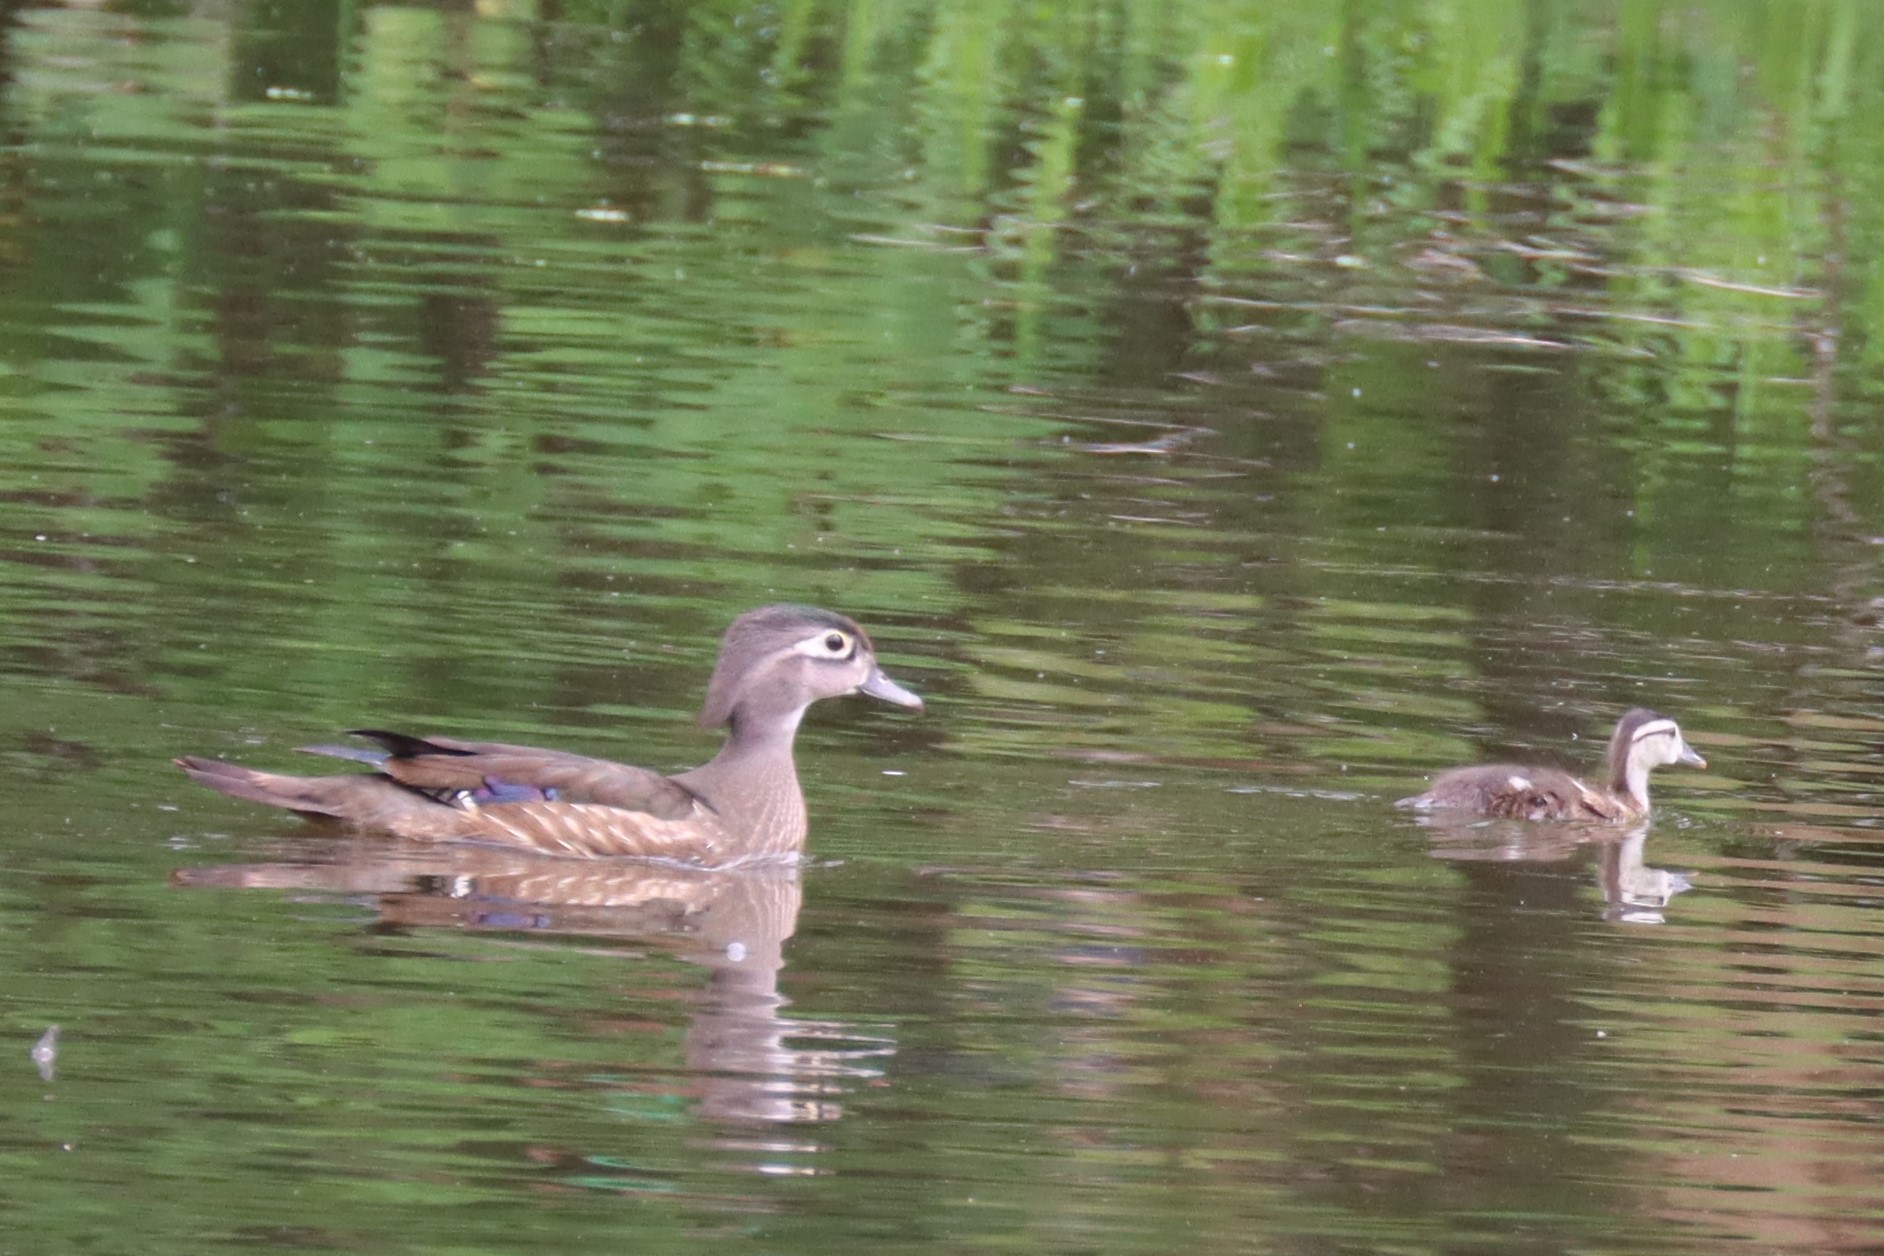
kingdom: Animalia
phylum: Chordata
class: Aves
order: Anseriformes
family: Anatidae
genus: Aix
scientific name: Aix sponsa
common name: Wood duck
